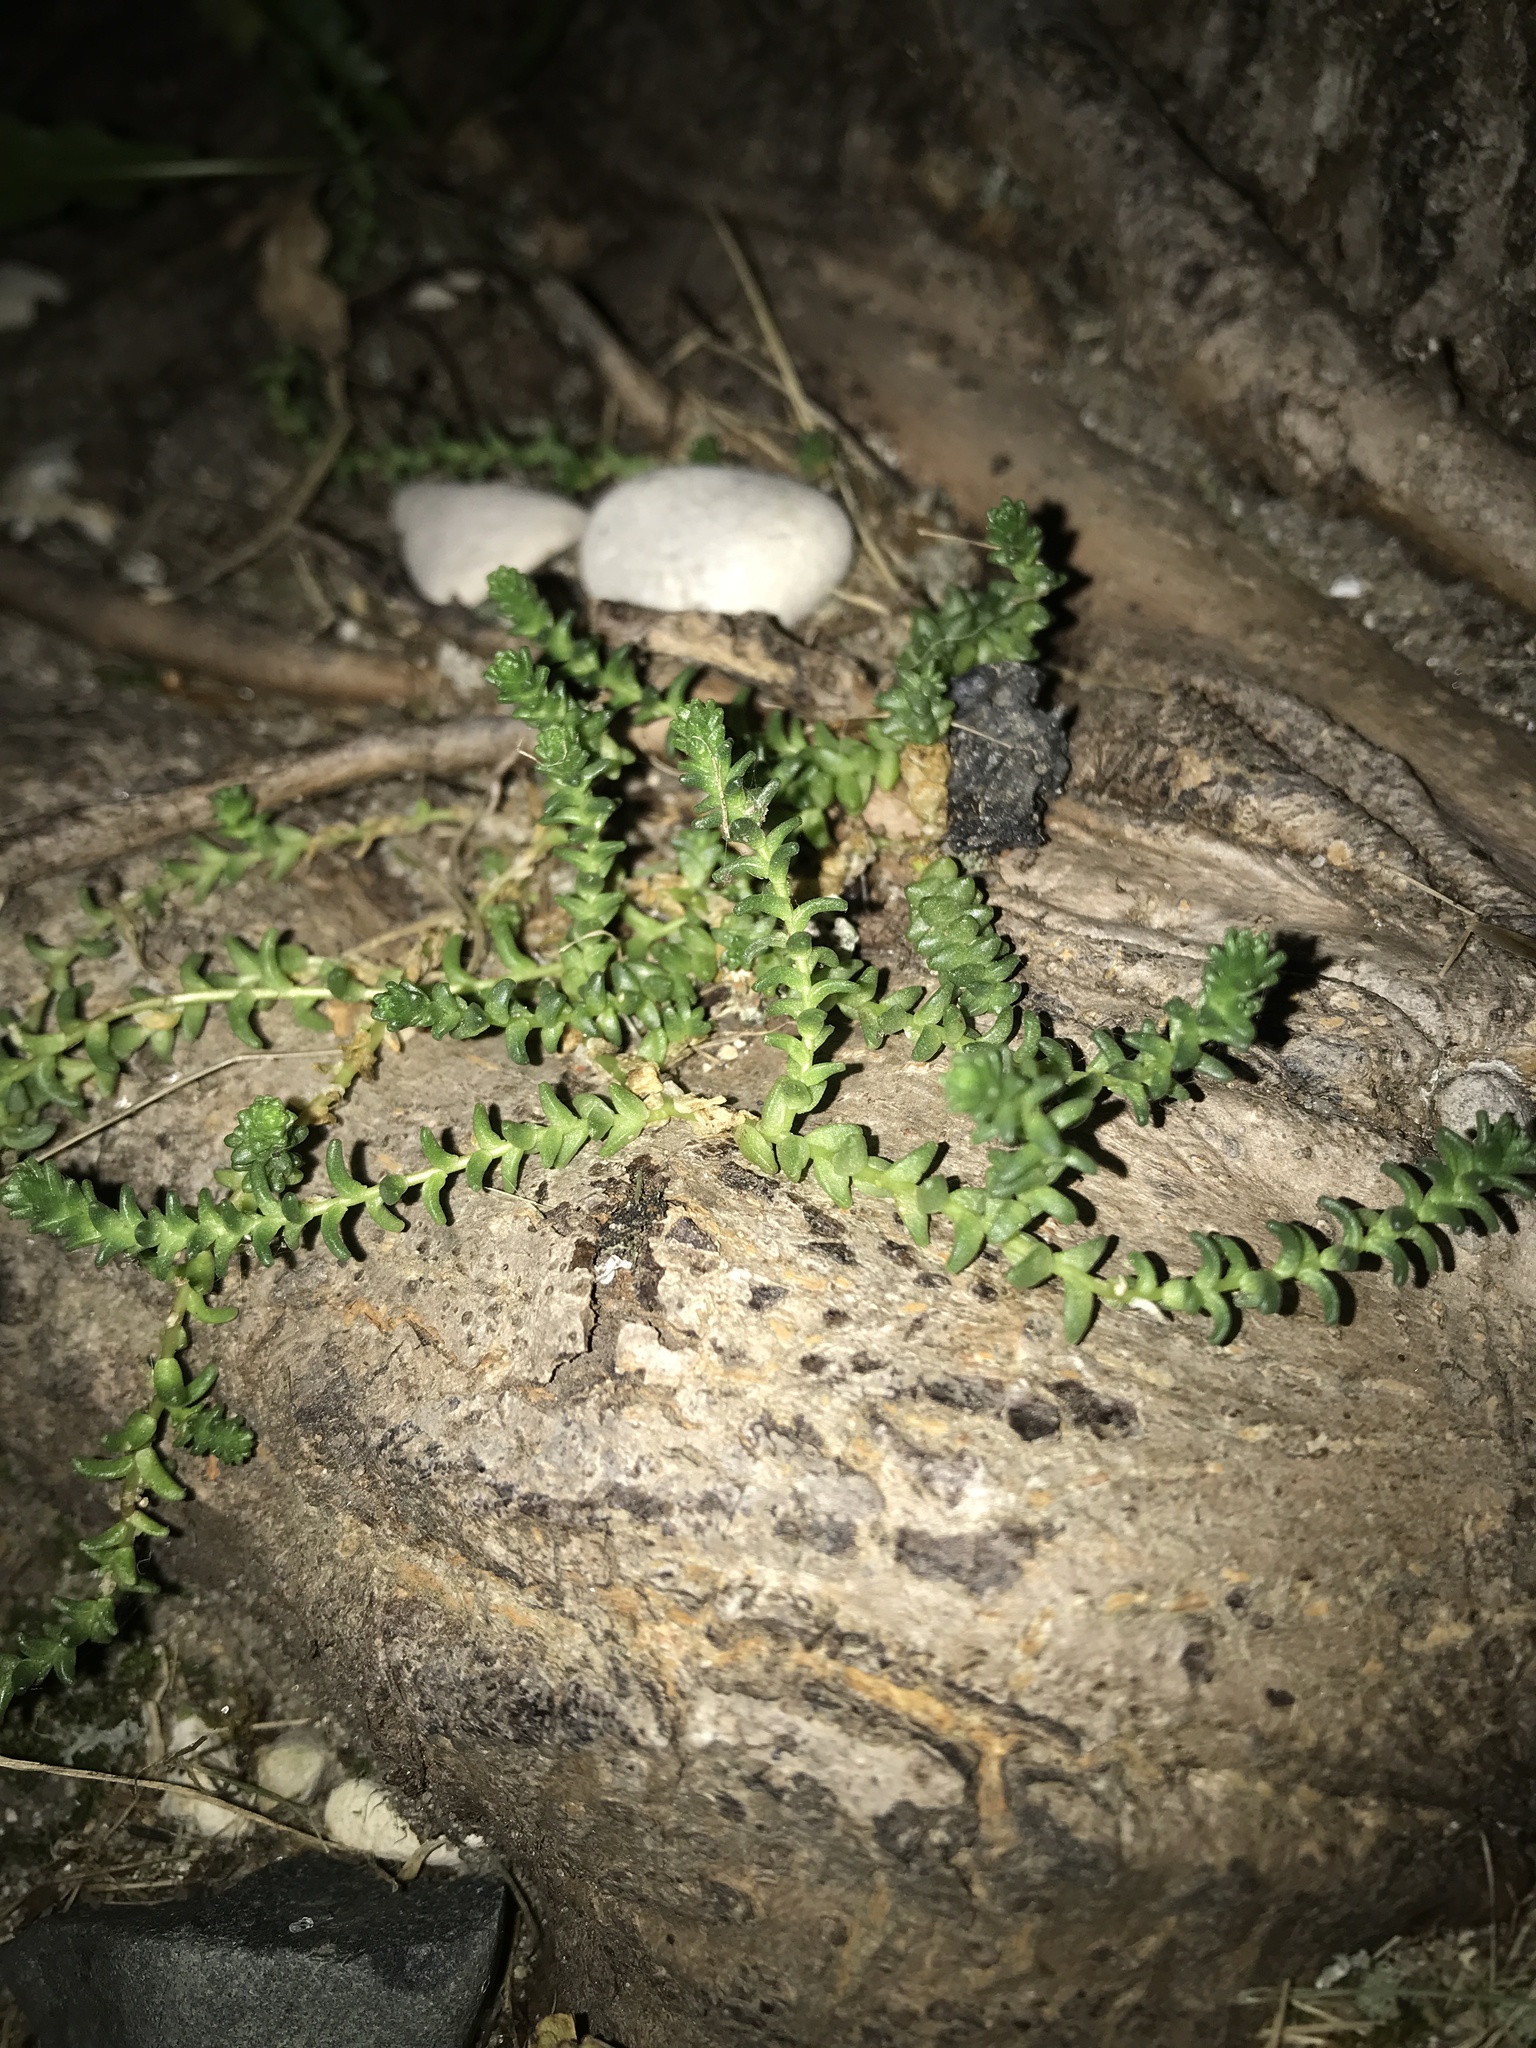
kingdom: Plantae
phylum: Tracheophyta
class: Magnoliopsida
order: Saxifragales
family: Crassulaceae
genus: Sedum
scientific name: Sedum acre
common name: Biting stonecrop
